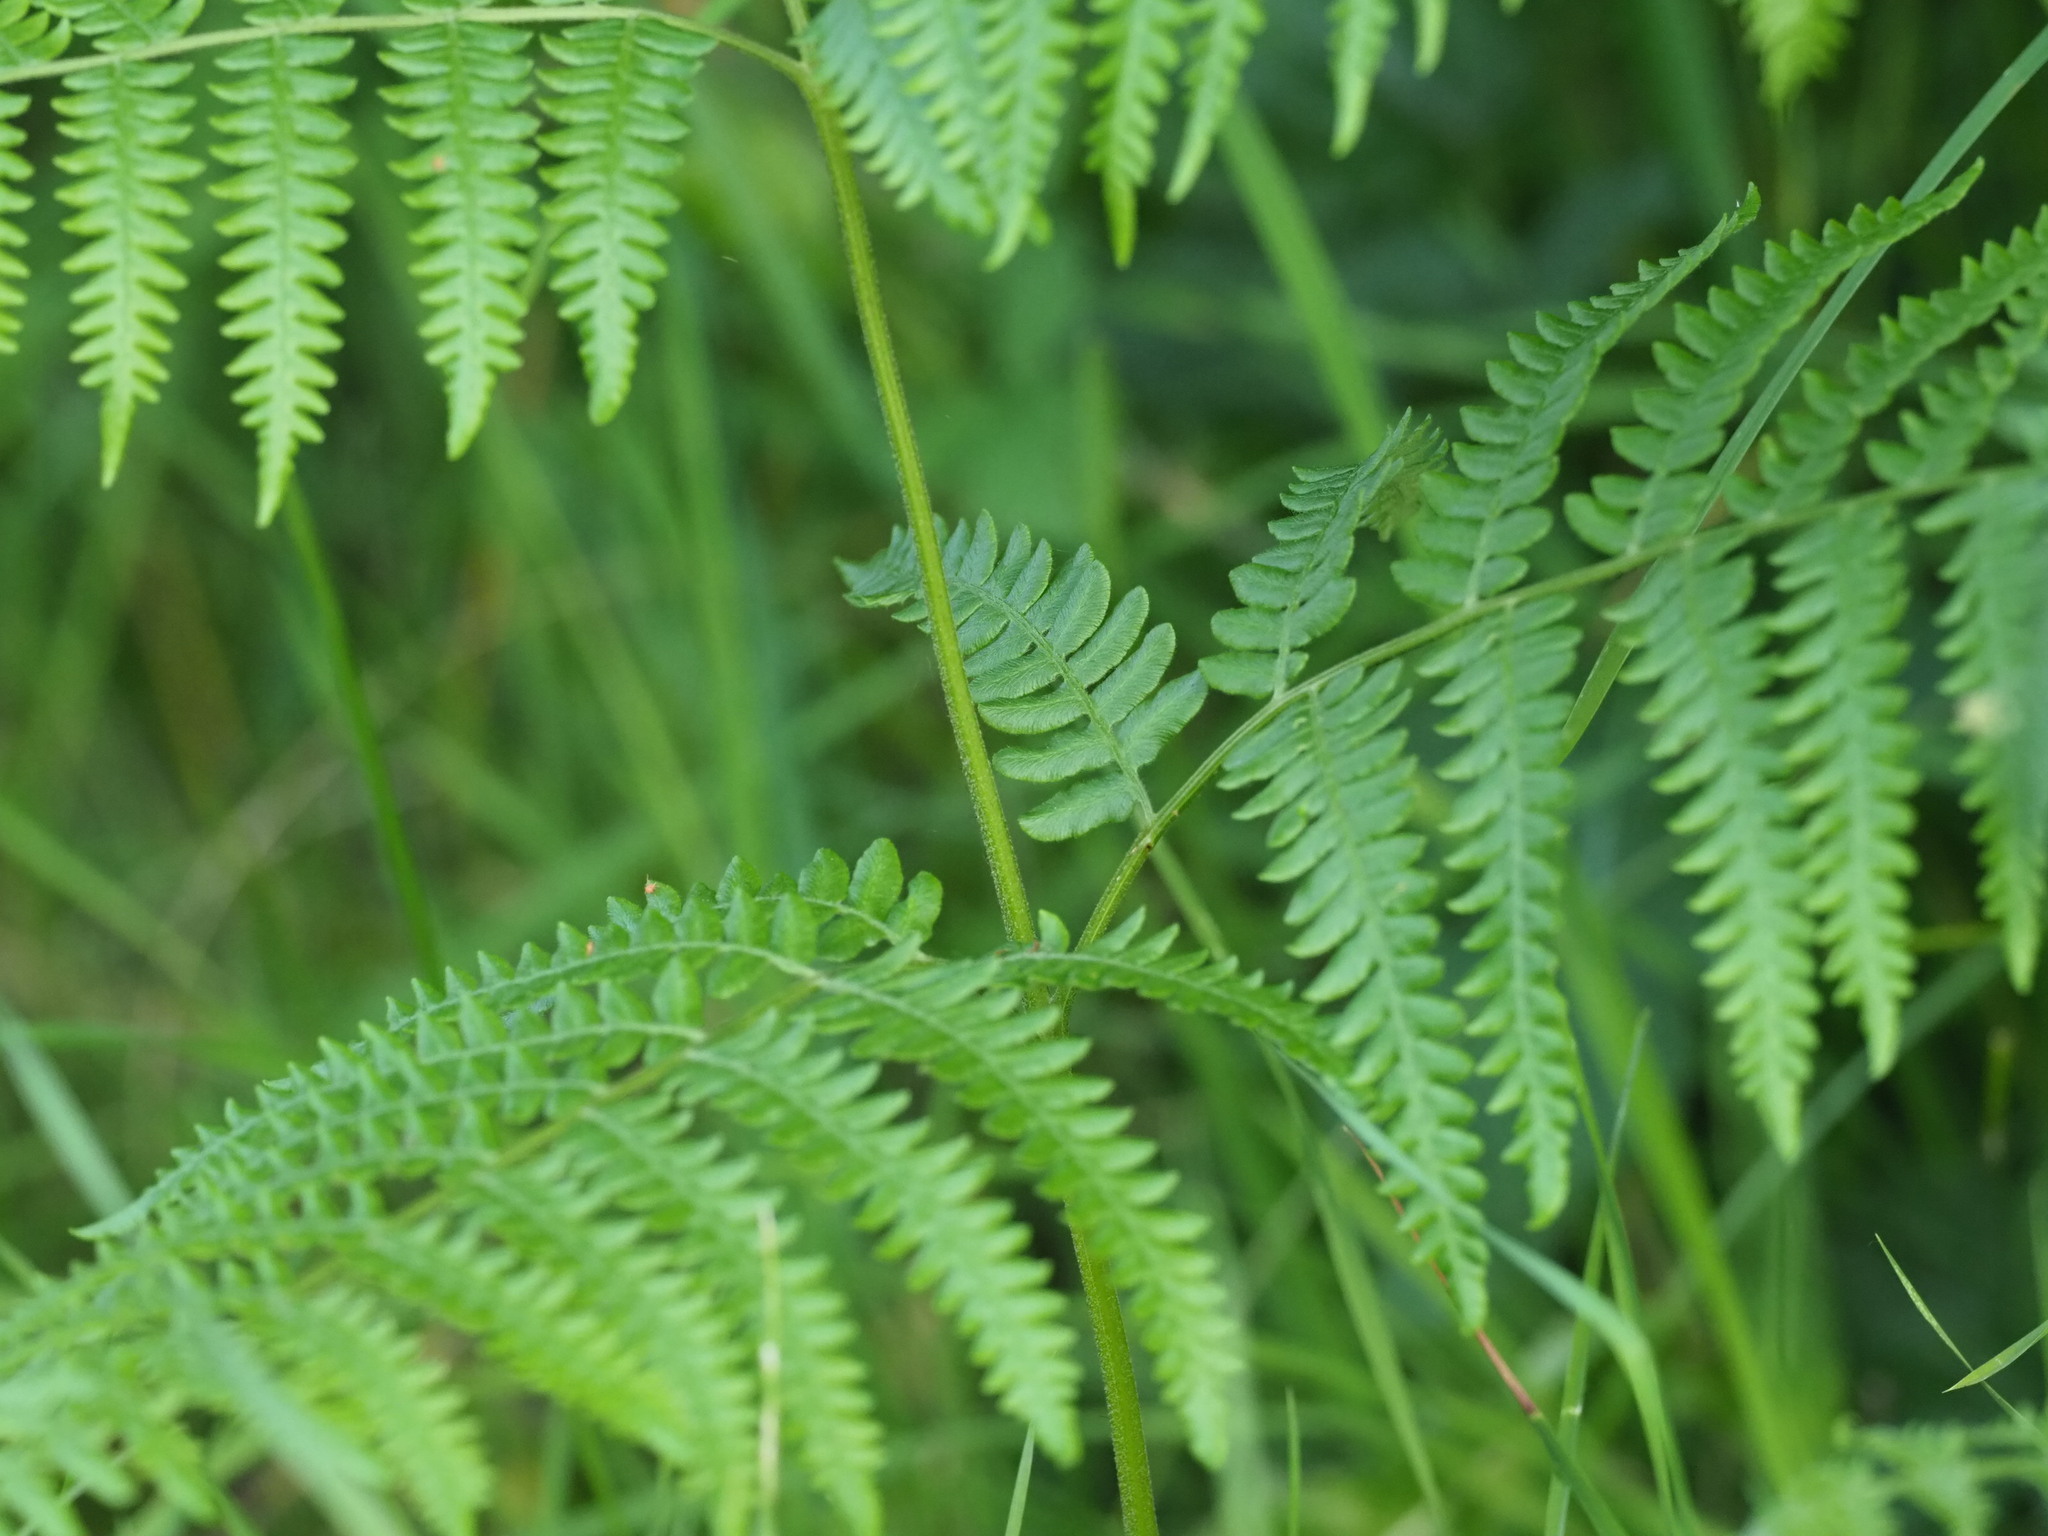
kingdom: Plantae
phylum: Tracheophyta
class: Polypodiopsida
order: Polypodiales
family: Dennstaedtiaceae
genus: Pteridium
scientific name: Pteridium aquilinum
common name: Bracken
